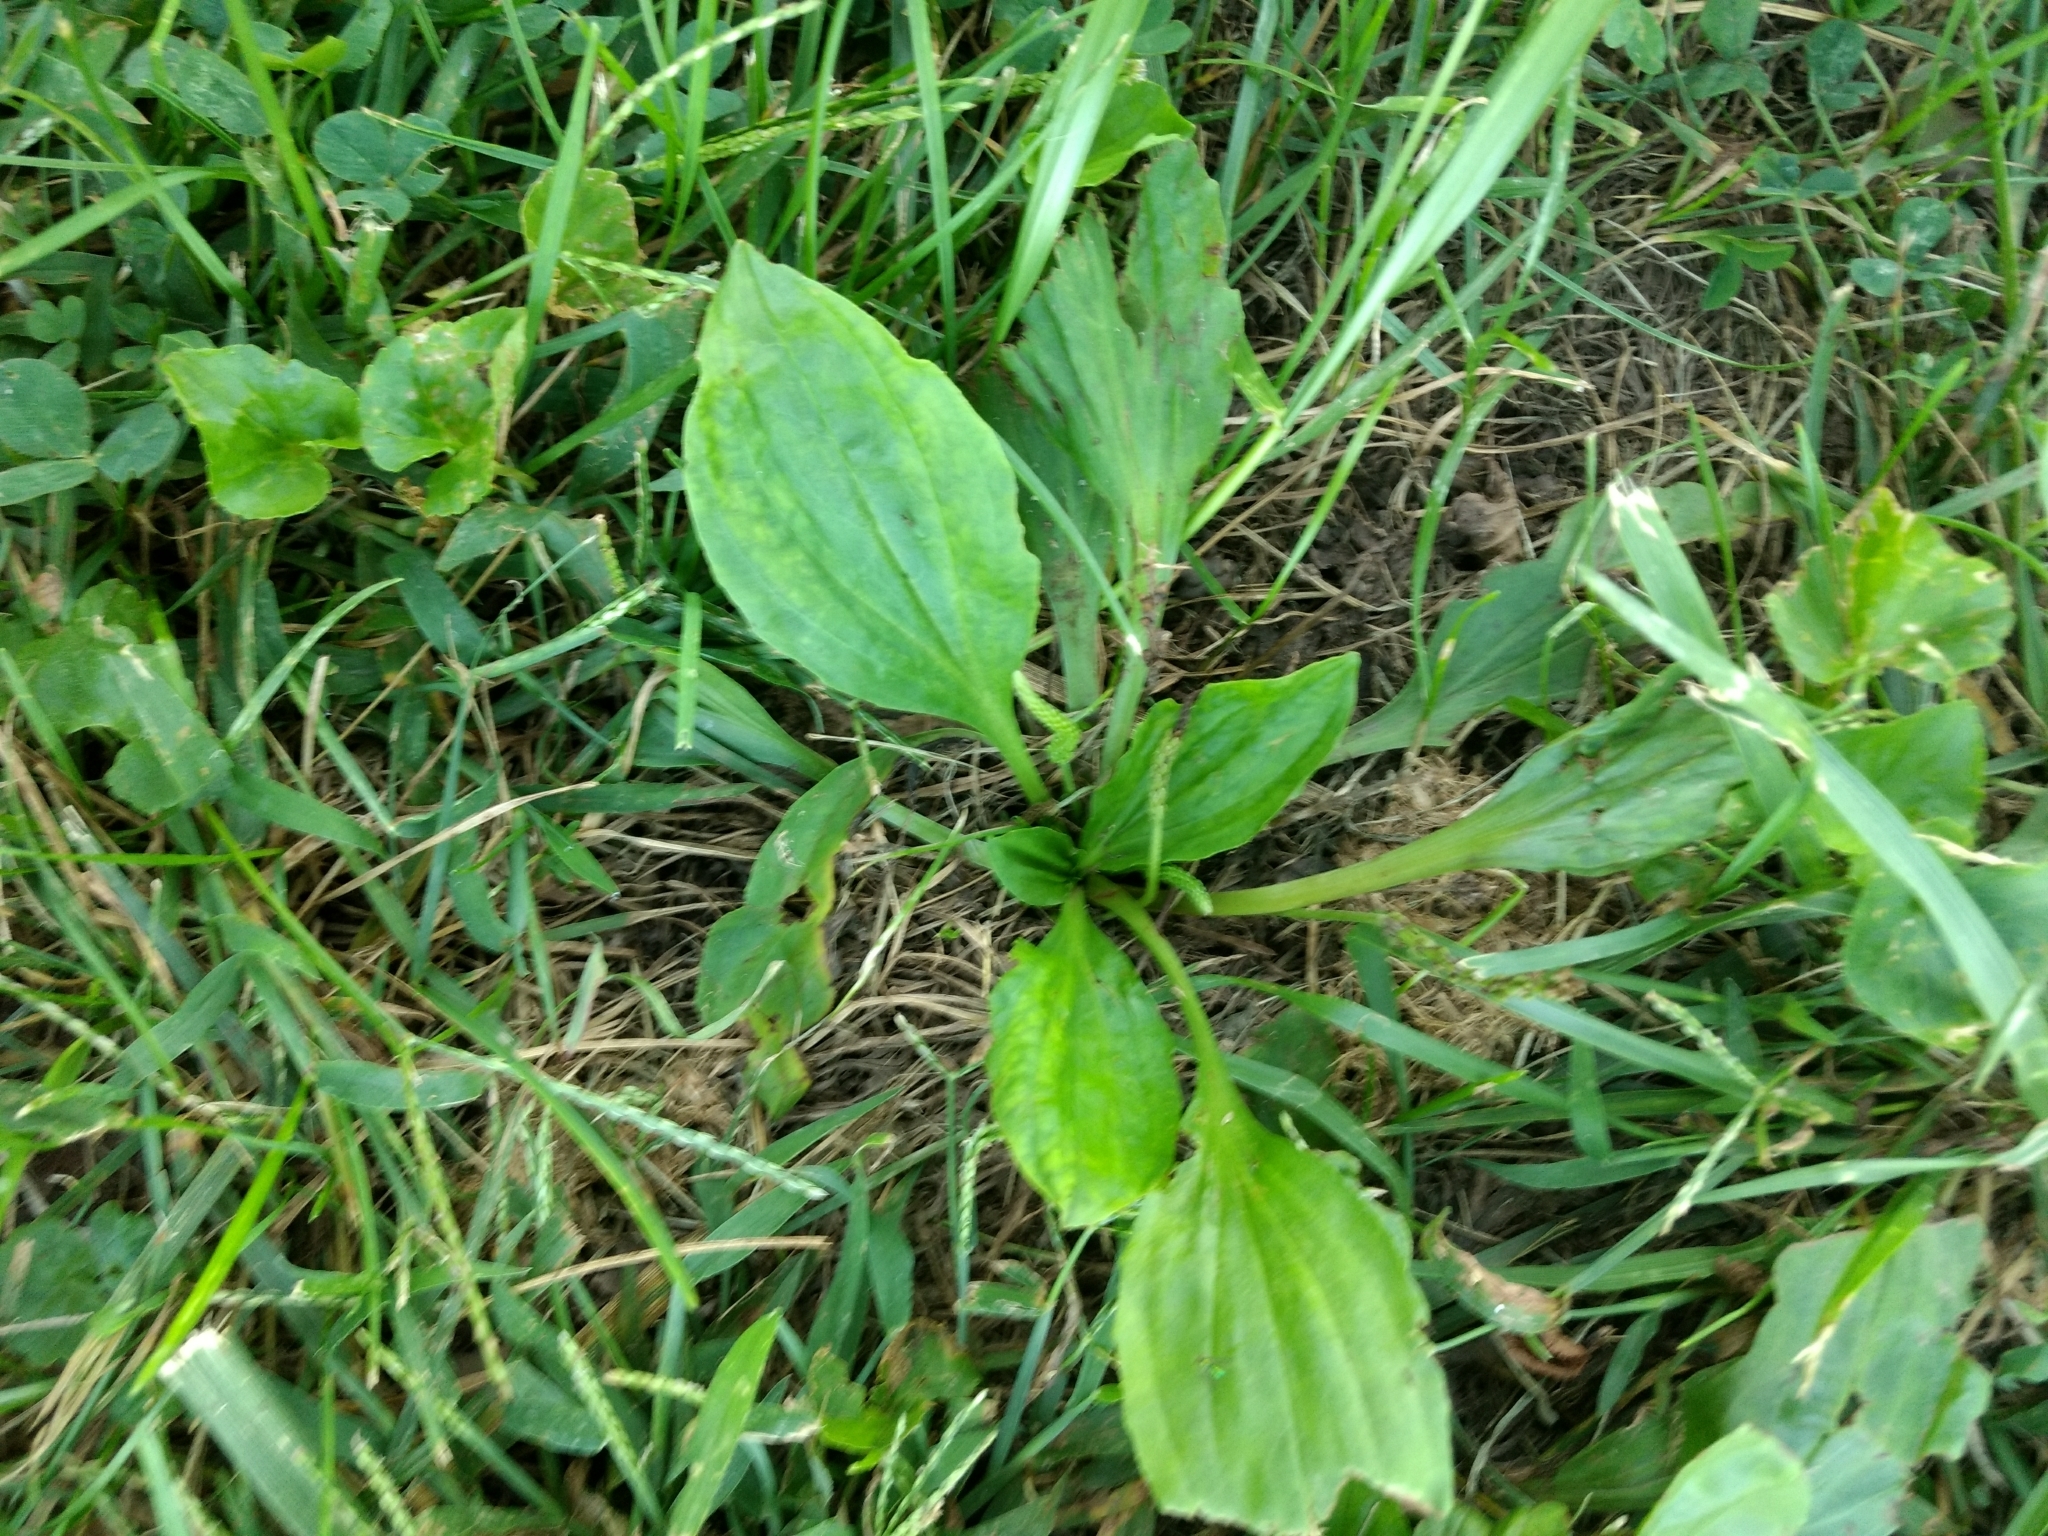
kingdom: Plantae
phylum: Tracheophyta
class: Magnoliopsida
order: Lamiales
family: Plantaginaceae
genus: Plantago
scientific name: Plantago major
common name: Common plantain
